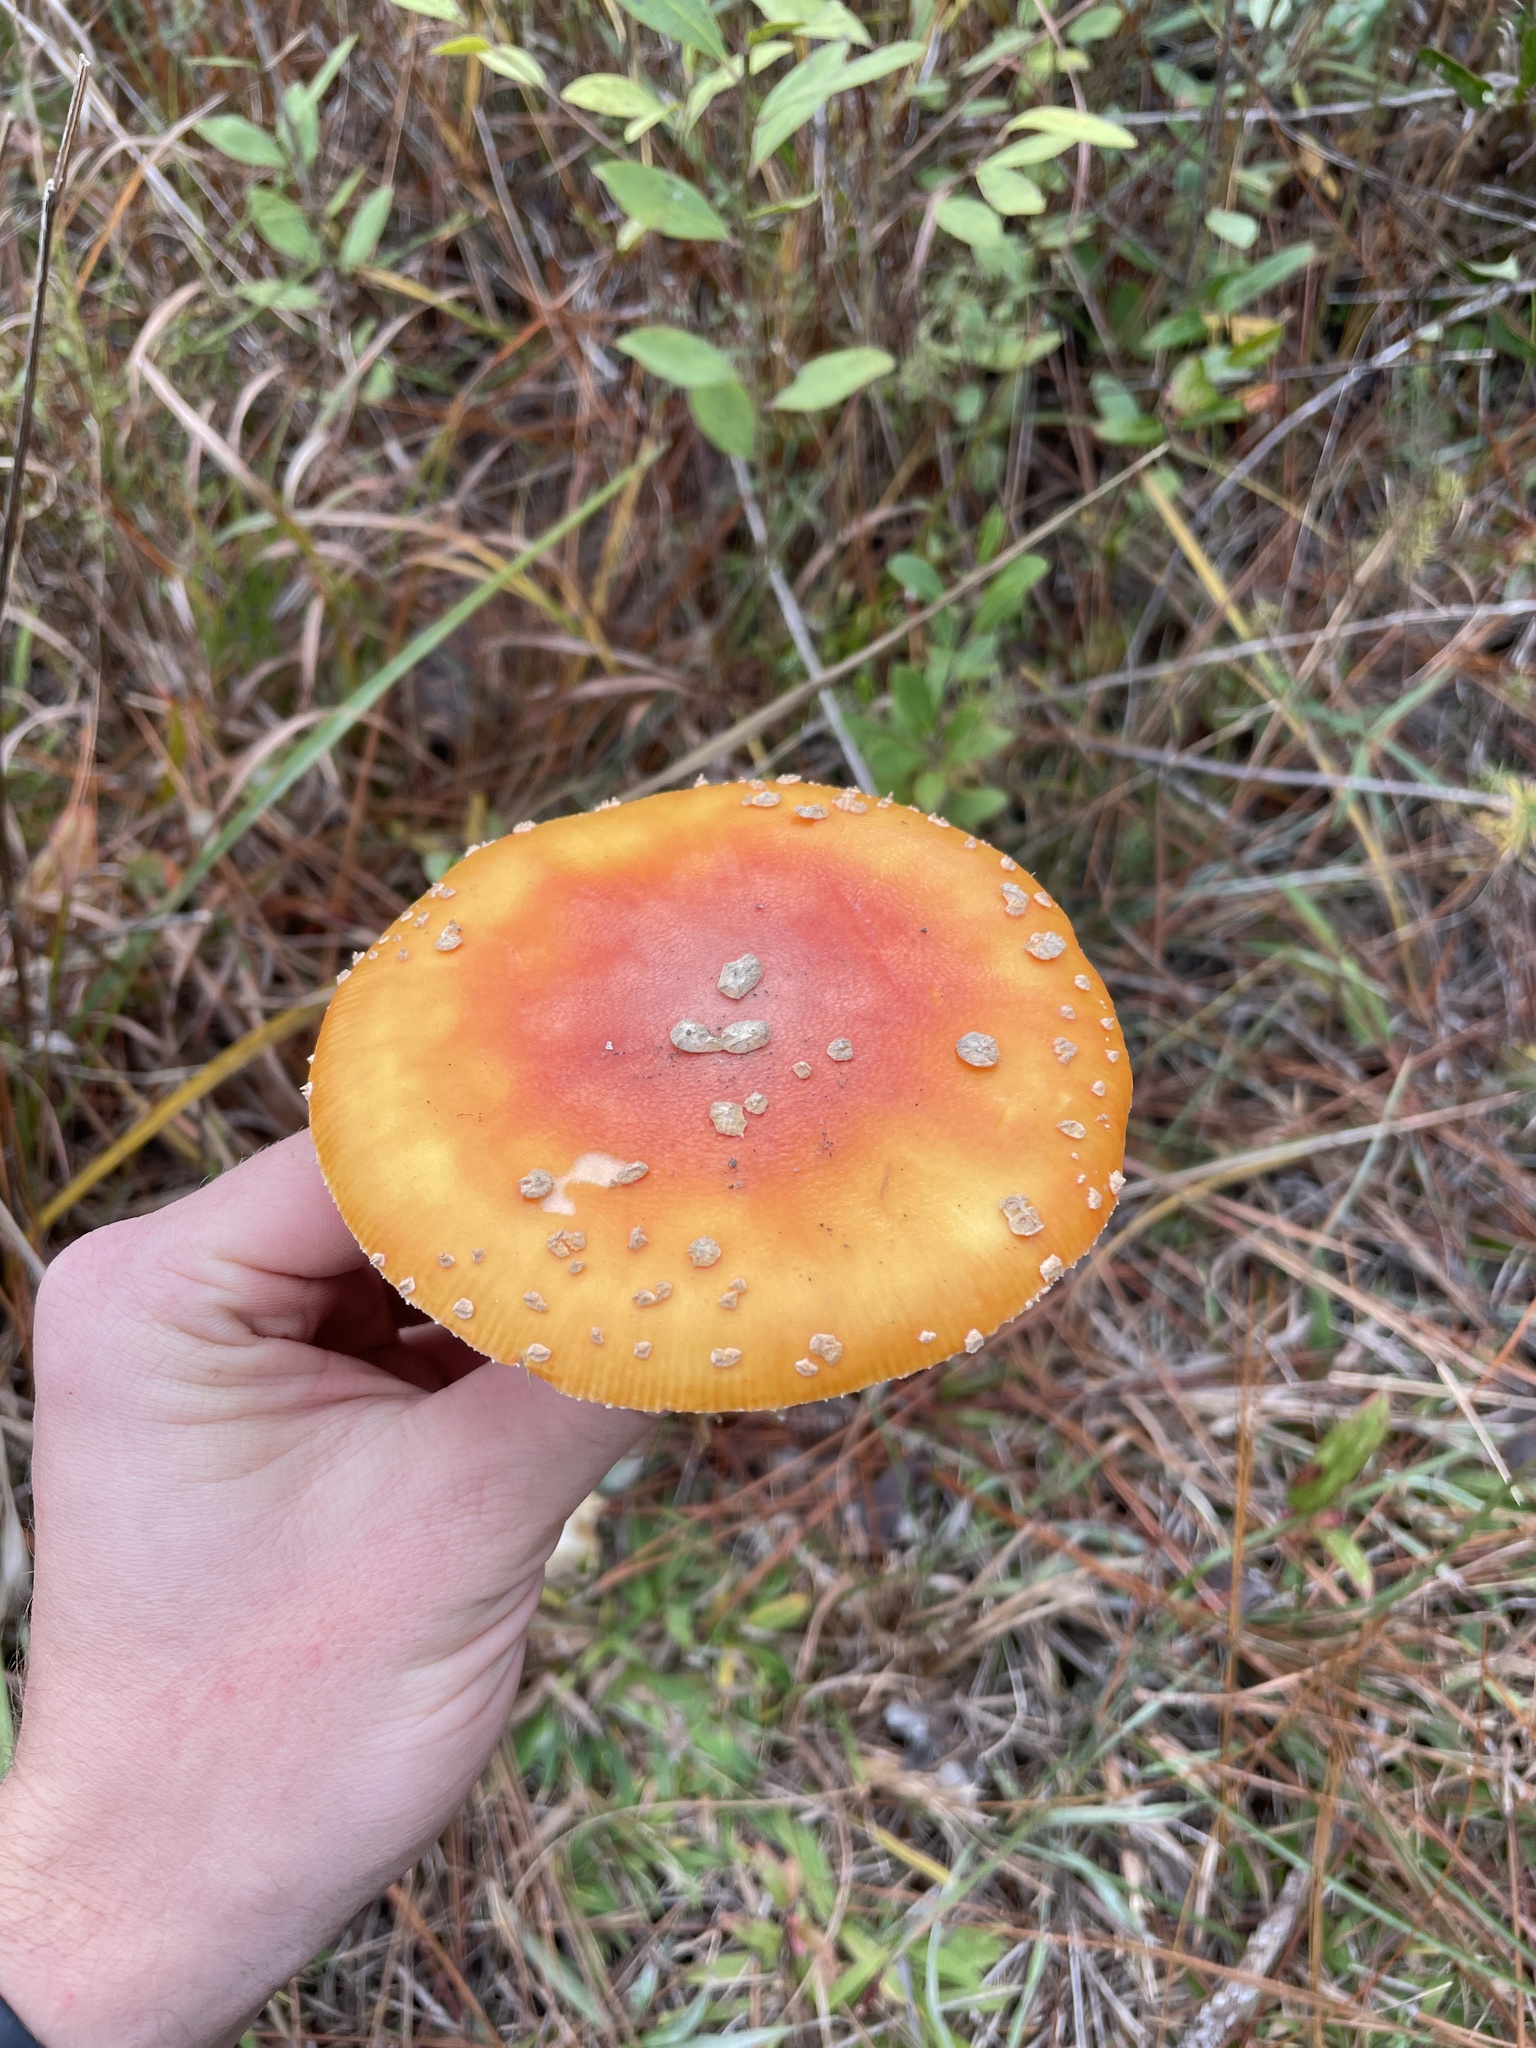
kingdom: Fungi
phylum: Basidiomycota
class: Agaricomycetes
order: Agaricales
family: Amanitaceae
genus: Amanita
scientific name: Amanita persicina
